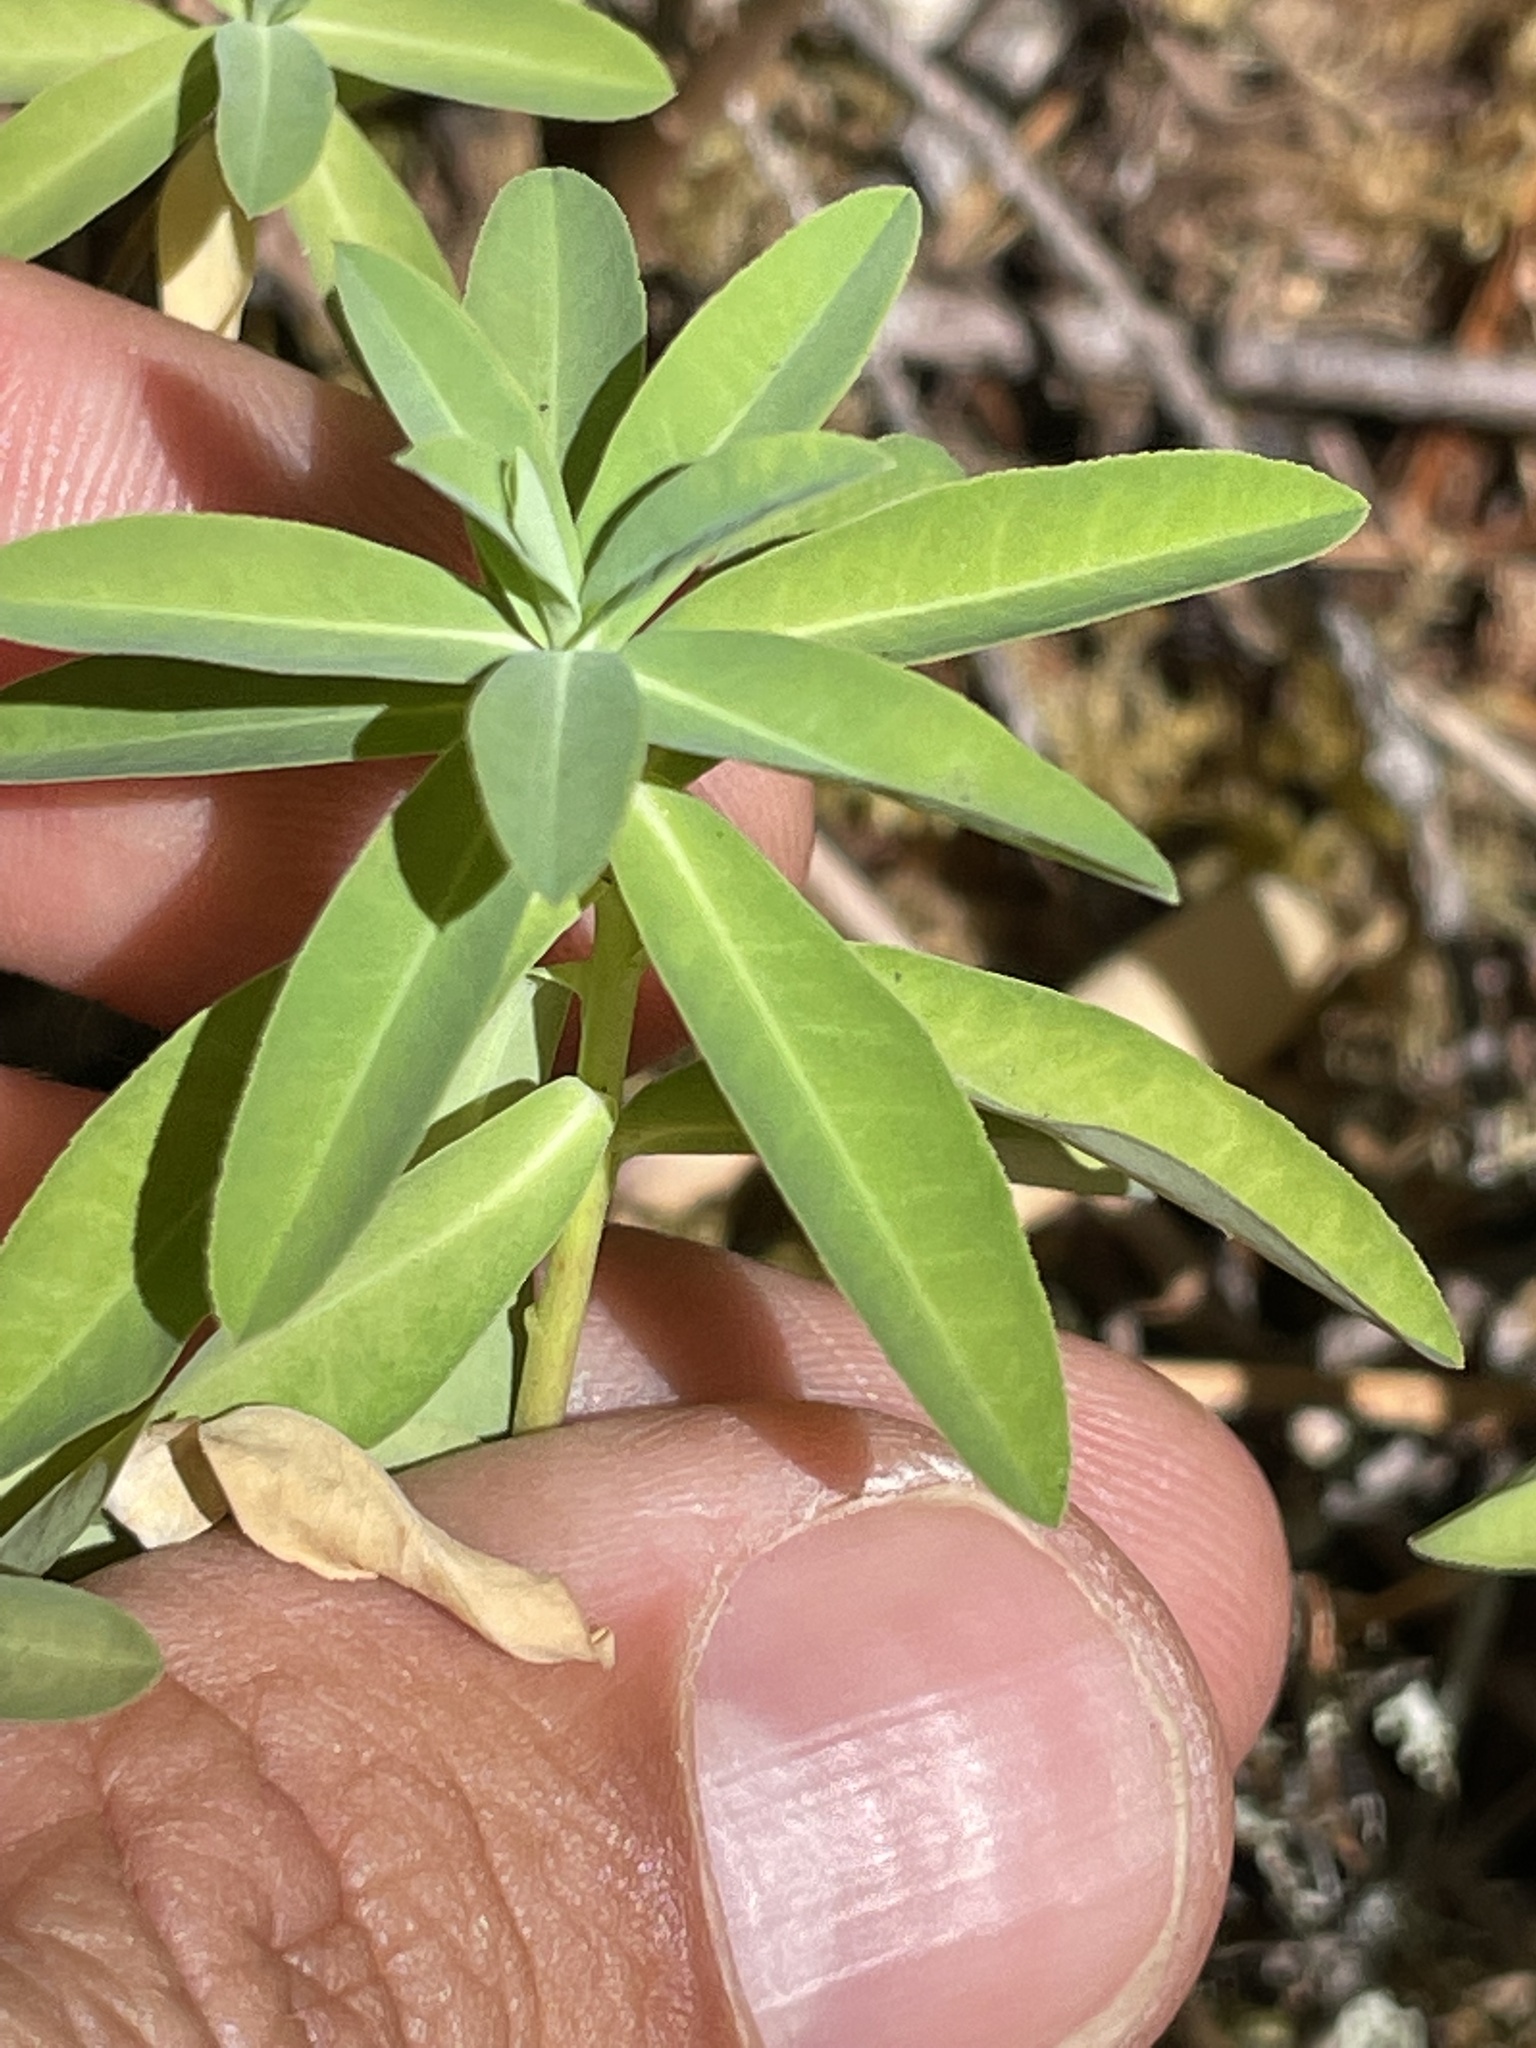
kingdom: Plantae
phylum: Tracheophyta
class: Magnoliopsida
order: Malpighiales
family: Euphorbiaceae
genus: Euphorbia
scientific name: Euphorbia oblongata
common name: Balkan spurge
